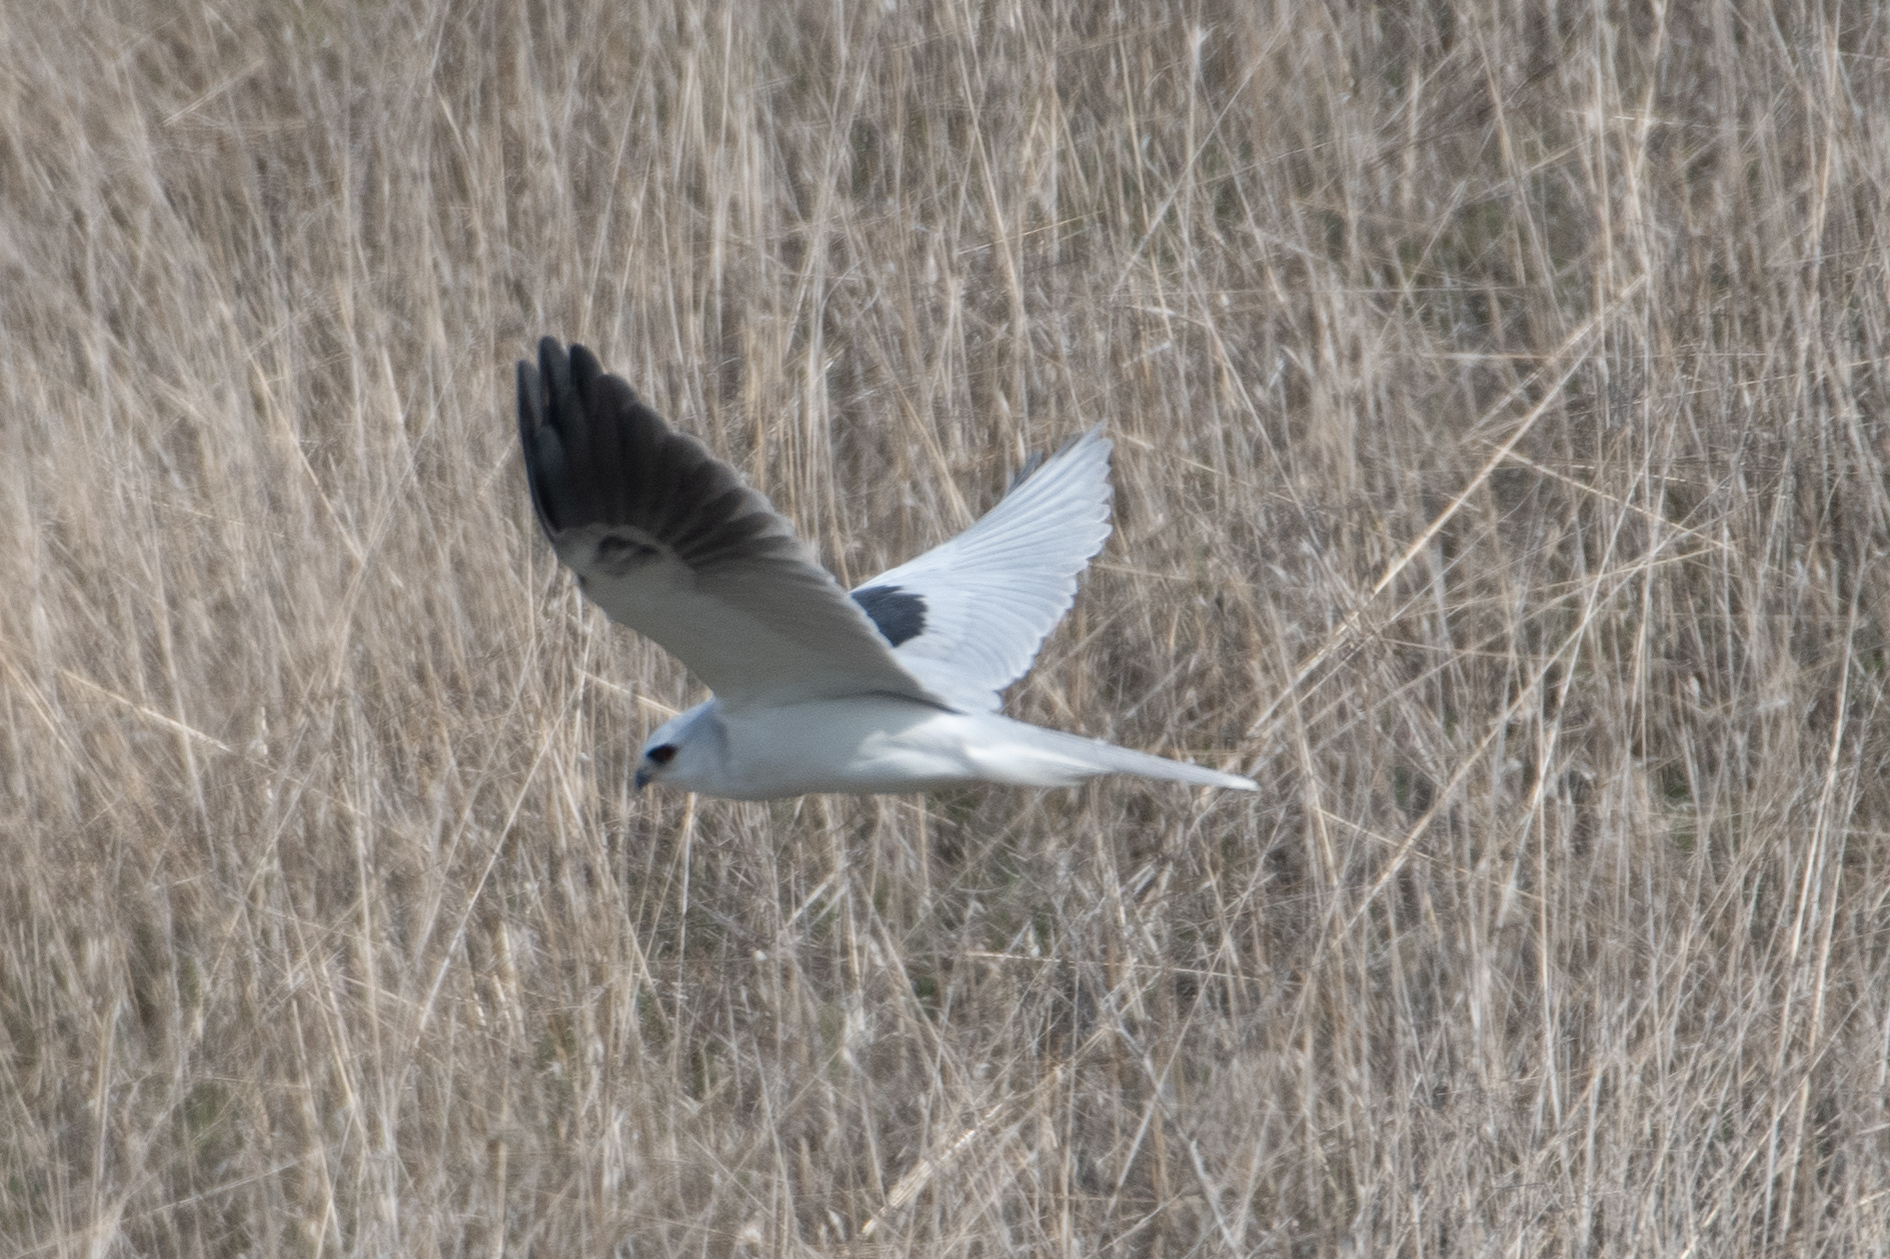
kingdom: Animalia
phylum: Chordata
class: Aves
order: Accipitriformes
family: Accipitridae
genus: Elanus
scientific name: Elanus leucurus
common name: White-tailed kite
